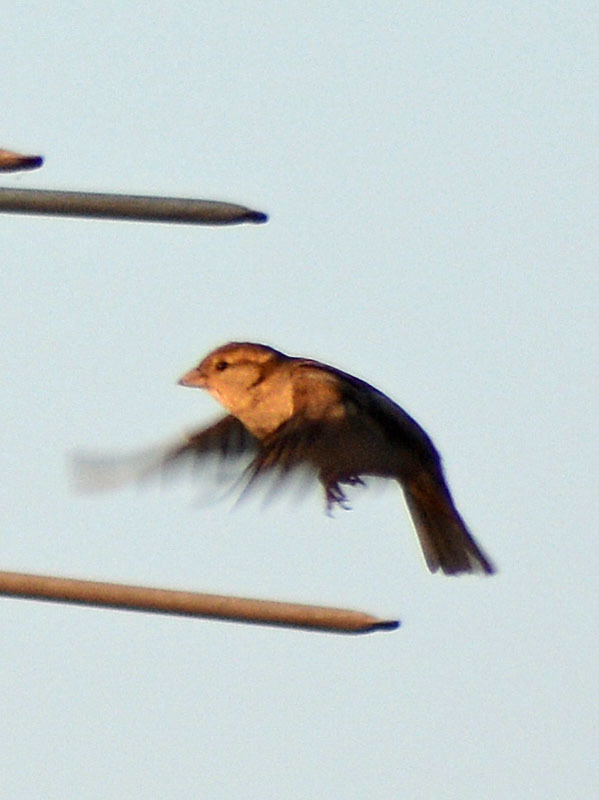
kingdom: Animalia
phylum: Chordata
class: Aves
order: Passeriformes
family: Passeridae
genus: Passer
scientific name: Passer domesticus
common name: House sparrow
